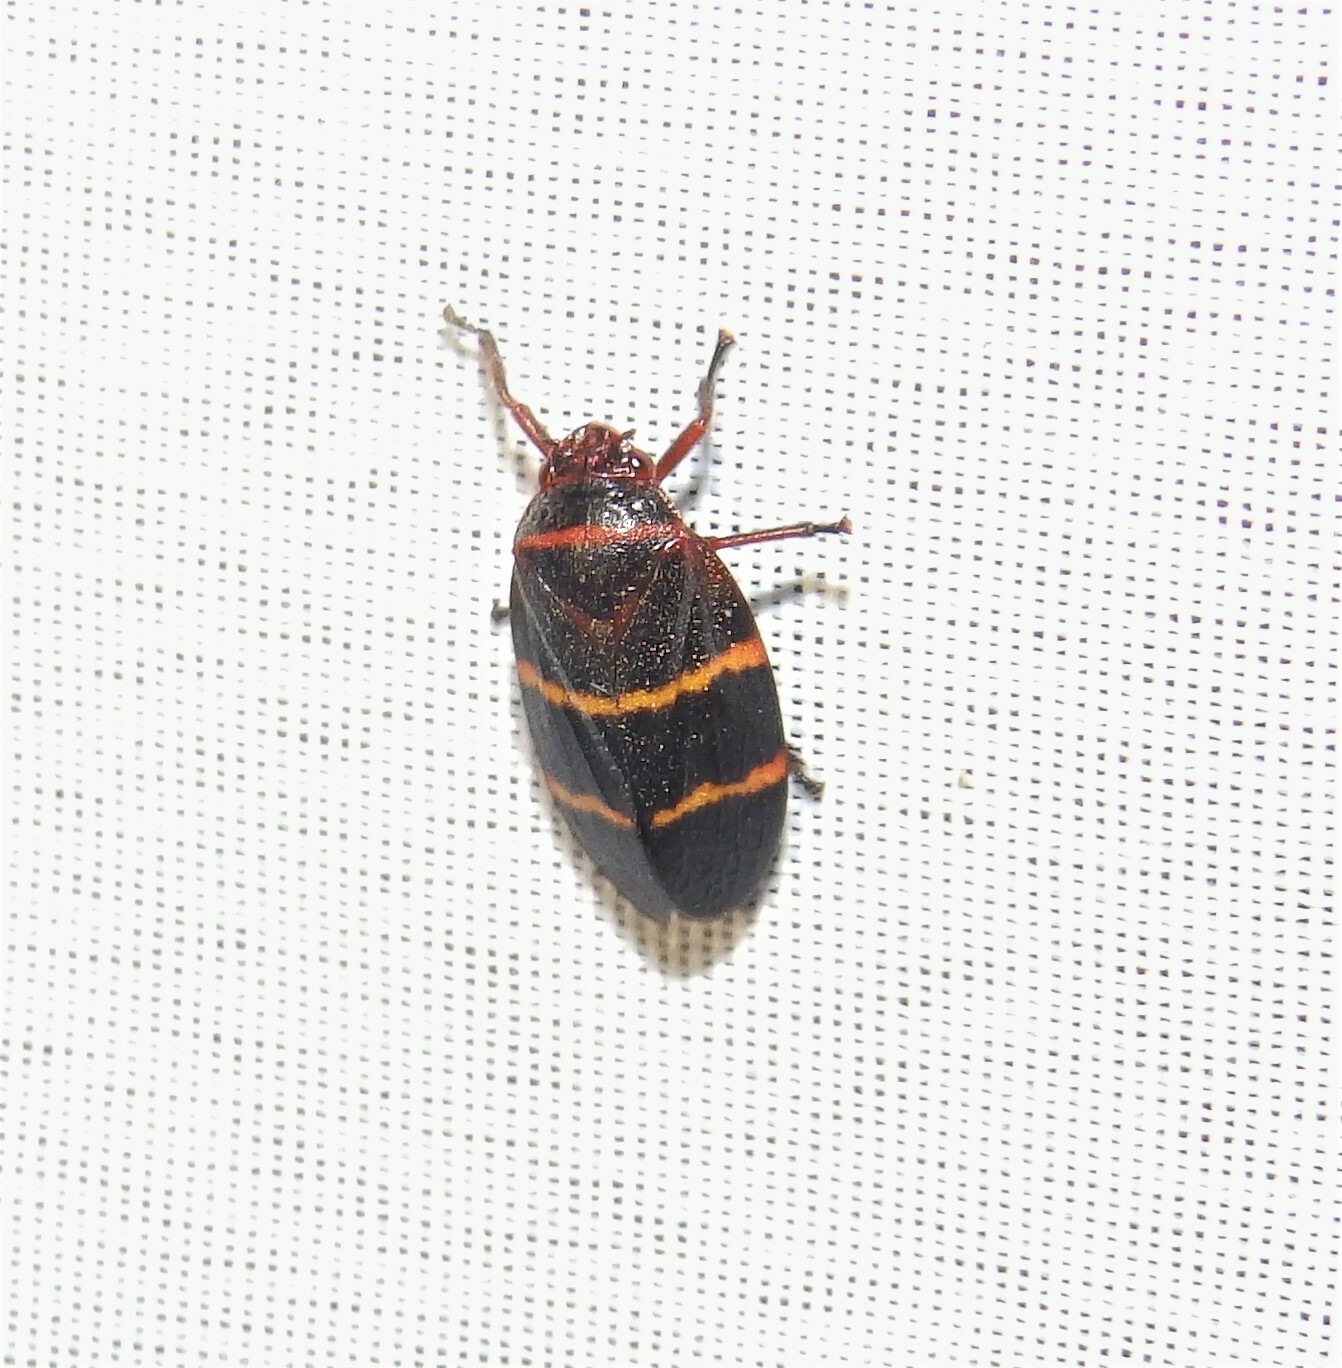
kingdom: Animalia
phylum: Arthropoda
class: Insecta
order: Hemiptera
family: Cercopidae
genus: Prosapia
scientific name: Prosapia bicincta
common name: Twolined spittlebug
